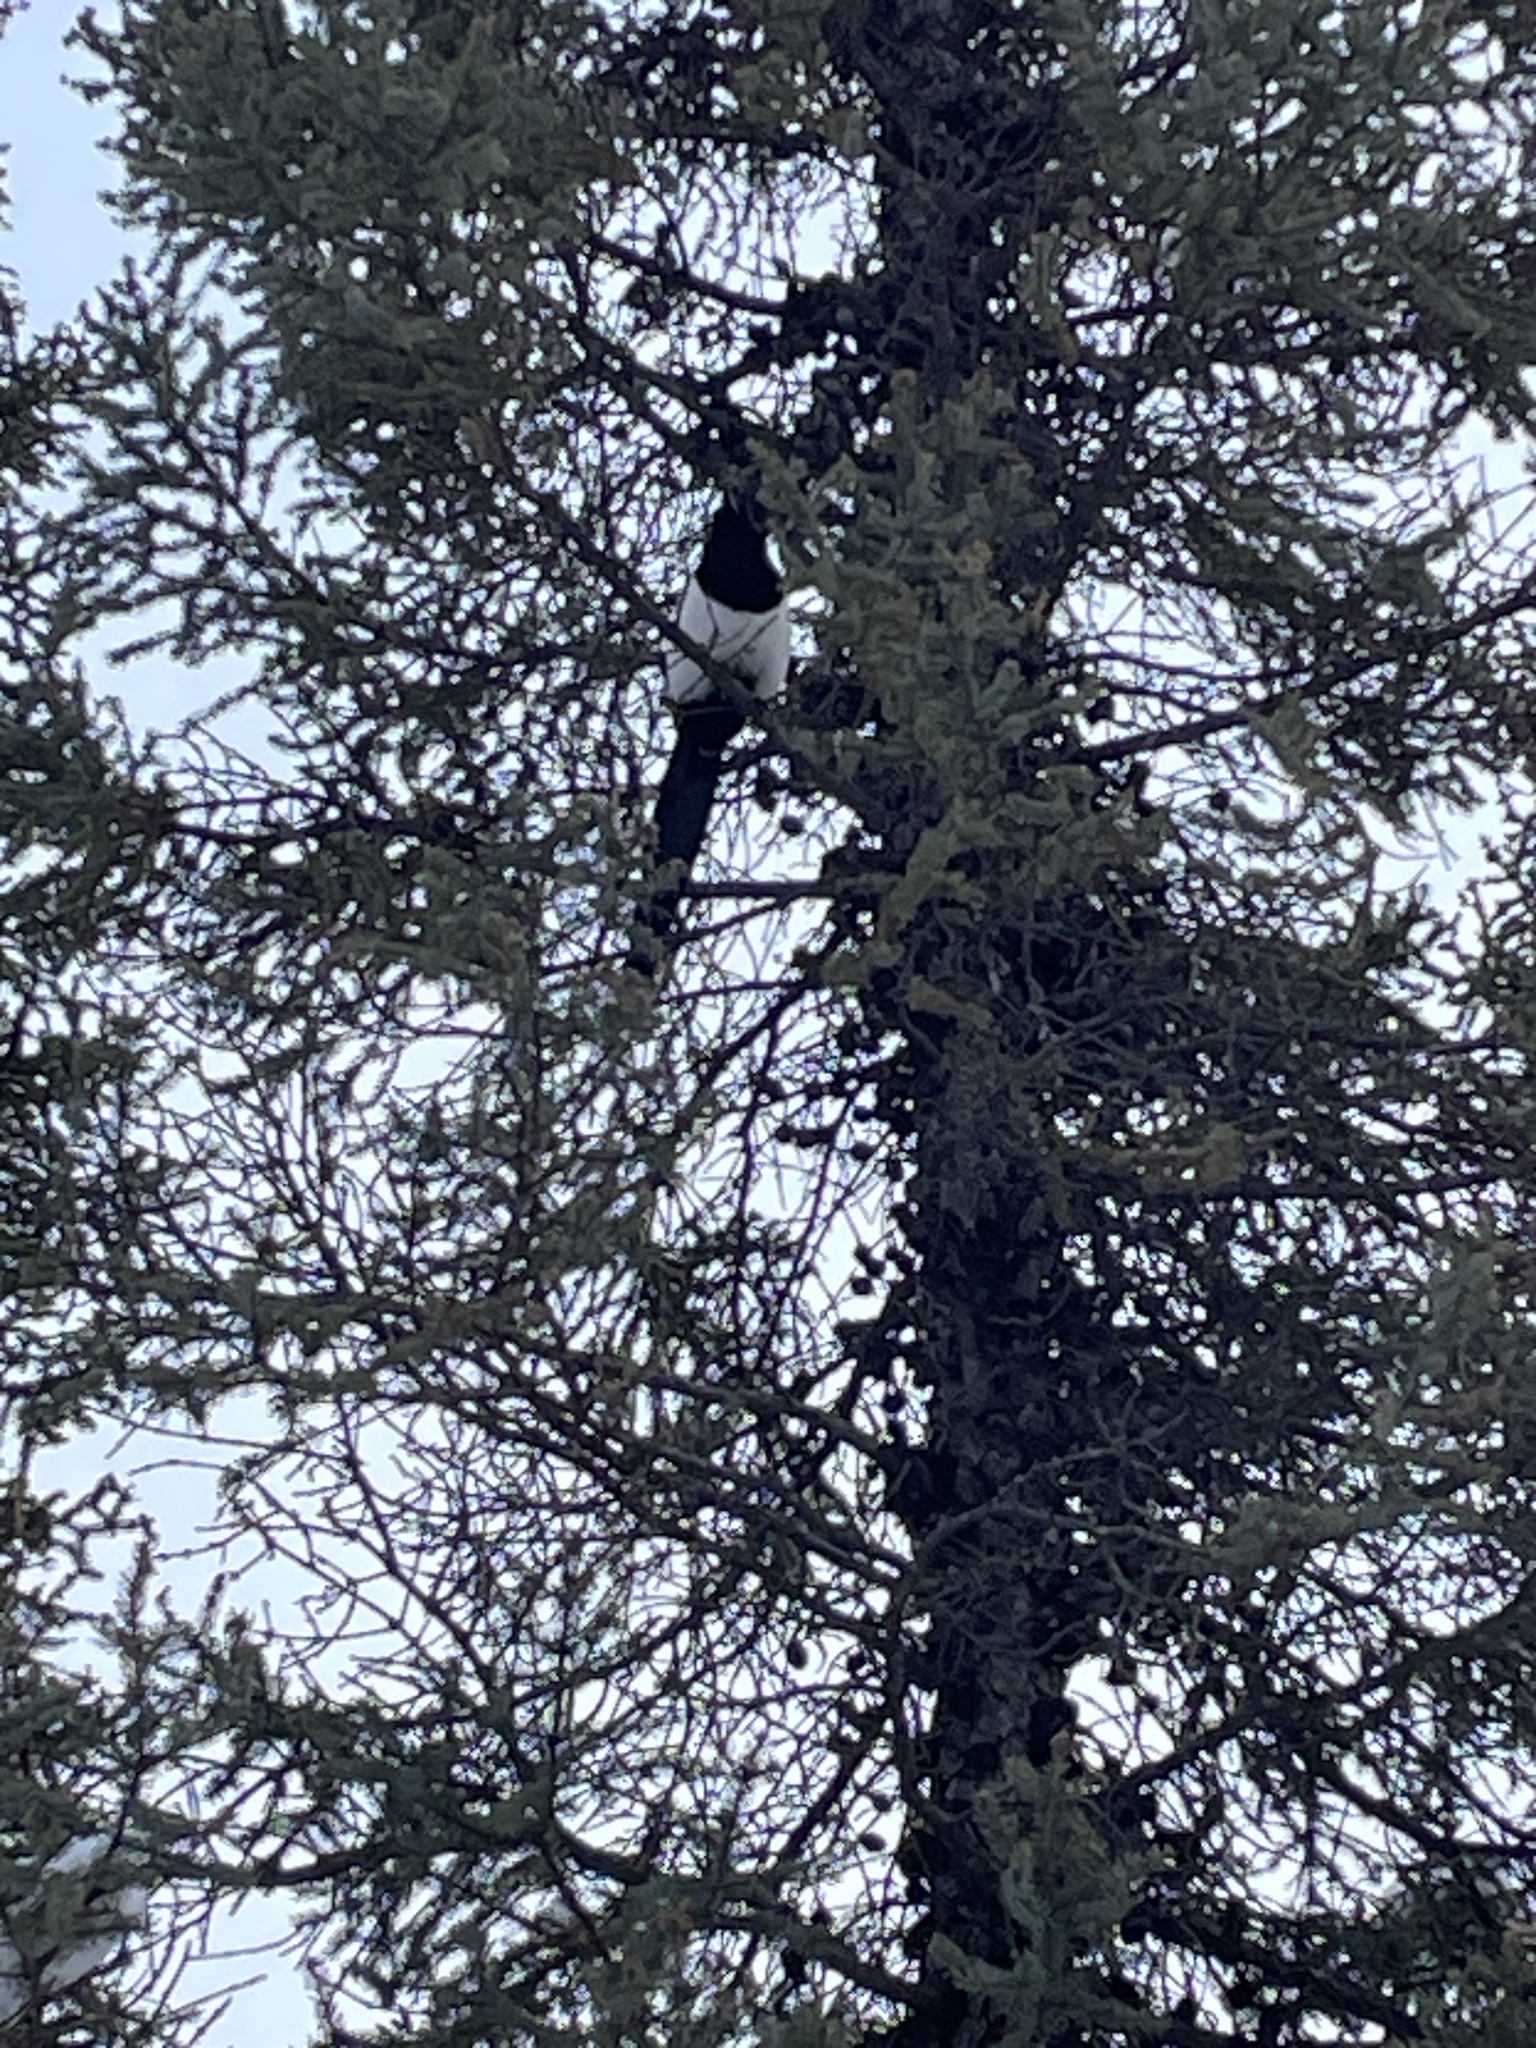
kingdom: Animalia
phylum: Chordata
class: Aves
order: Passeriformes
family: Corvidae
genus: Pica
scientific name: Pica hudsonia
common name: Black-billed magpie
